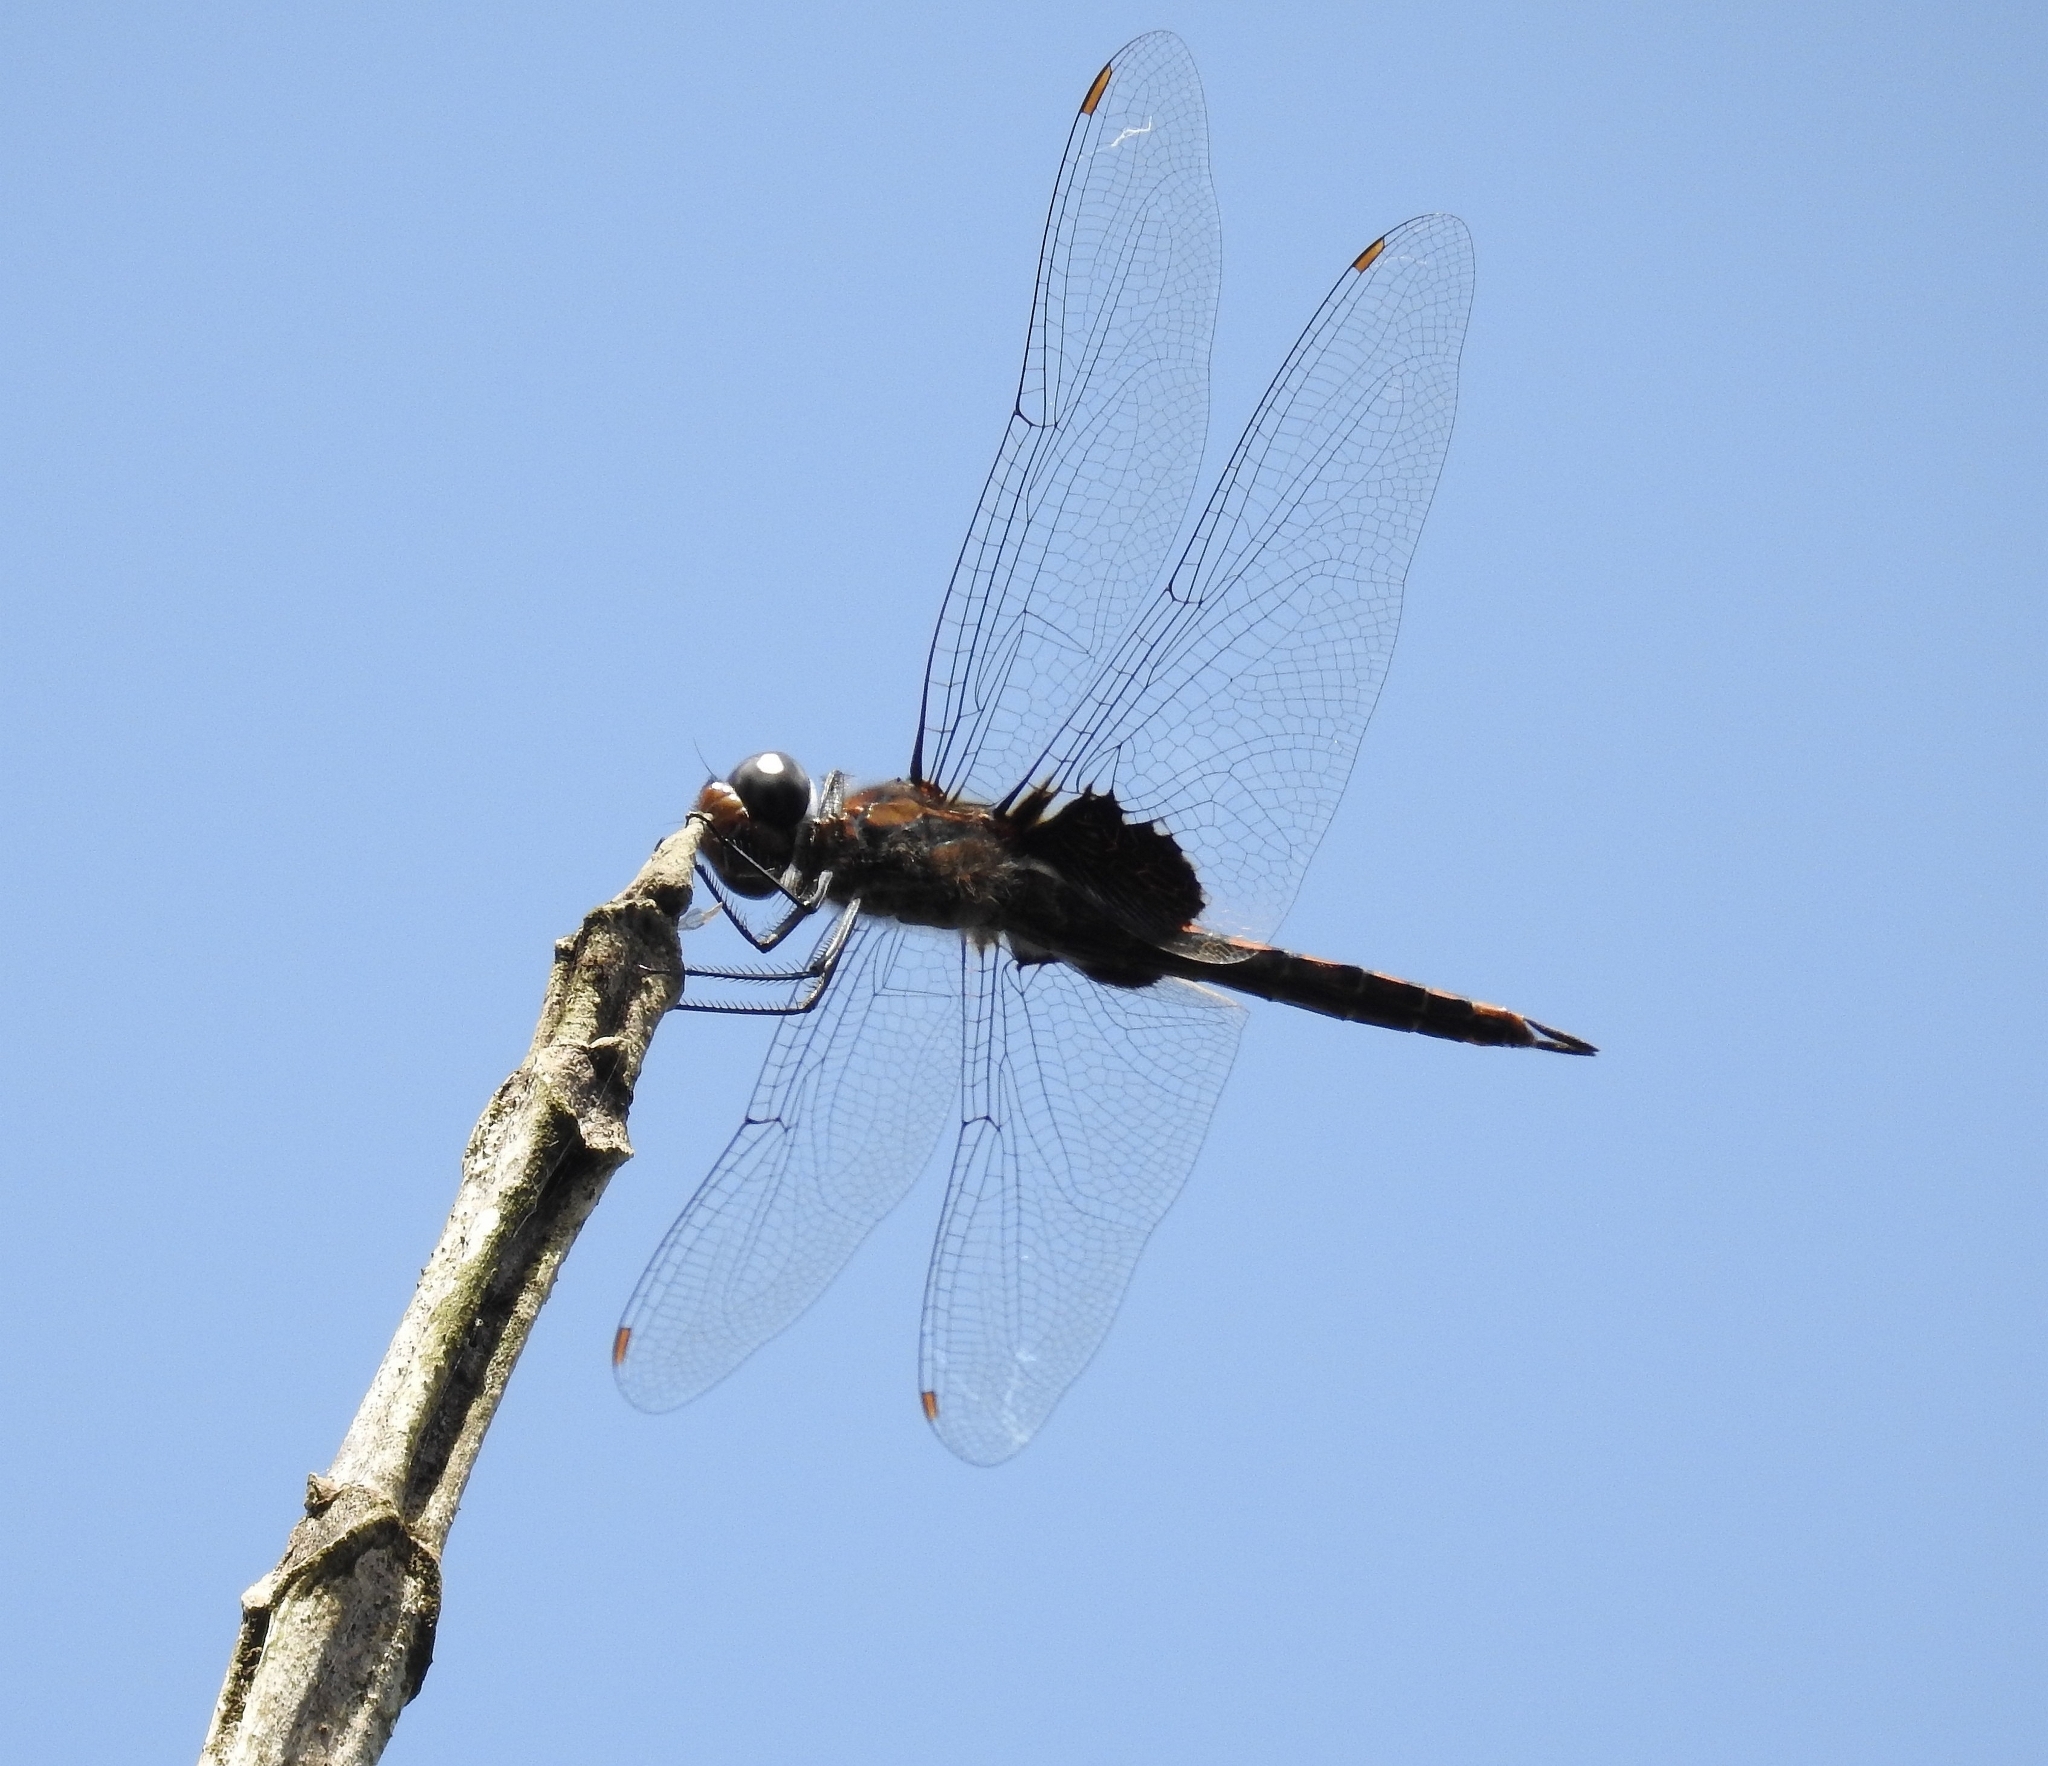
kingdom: Animalia
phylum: Arthropoda
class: Insecta
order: Odonata
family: Libellulidae
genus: Tramea
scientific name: Tramea limbata
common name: Ferruginous glider
